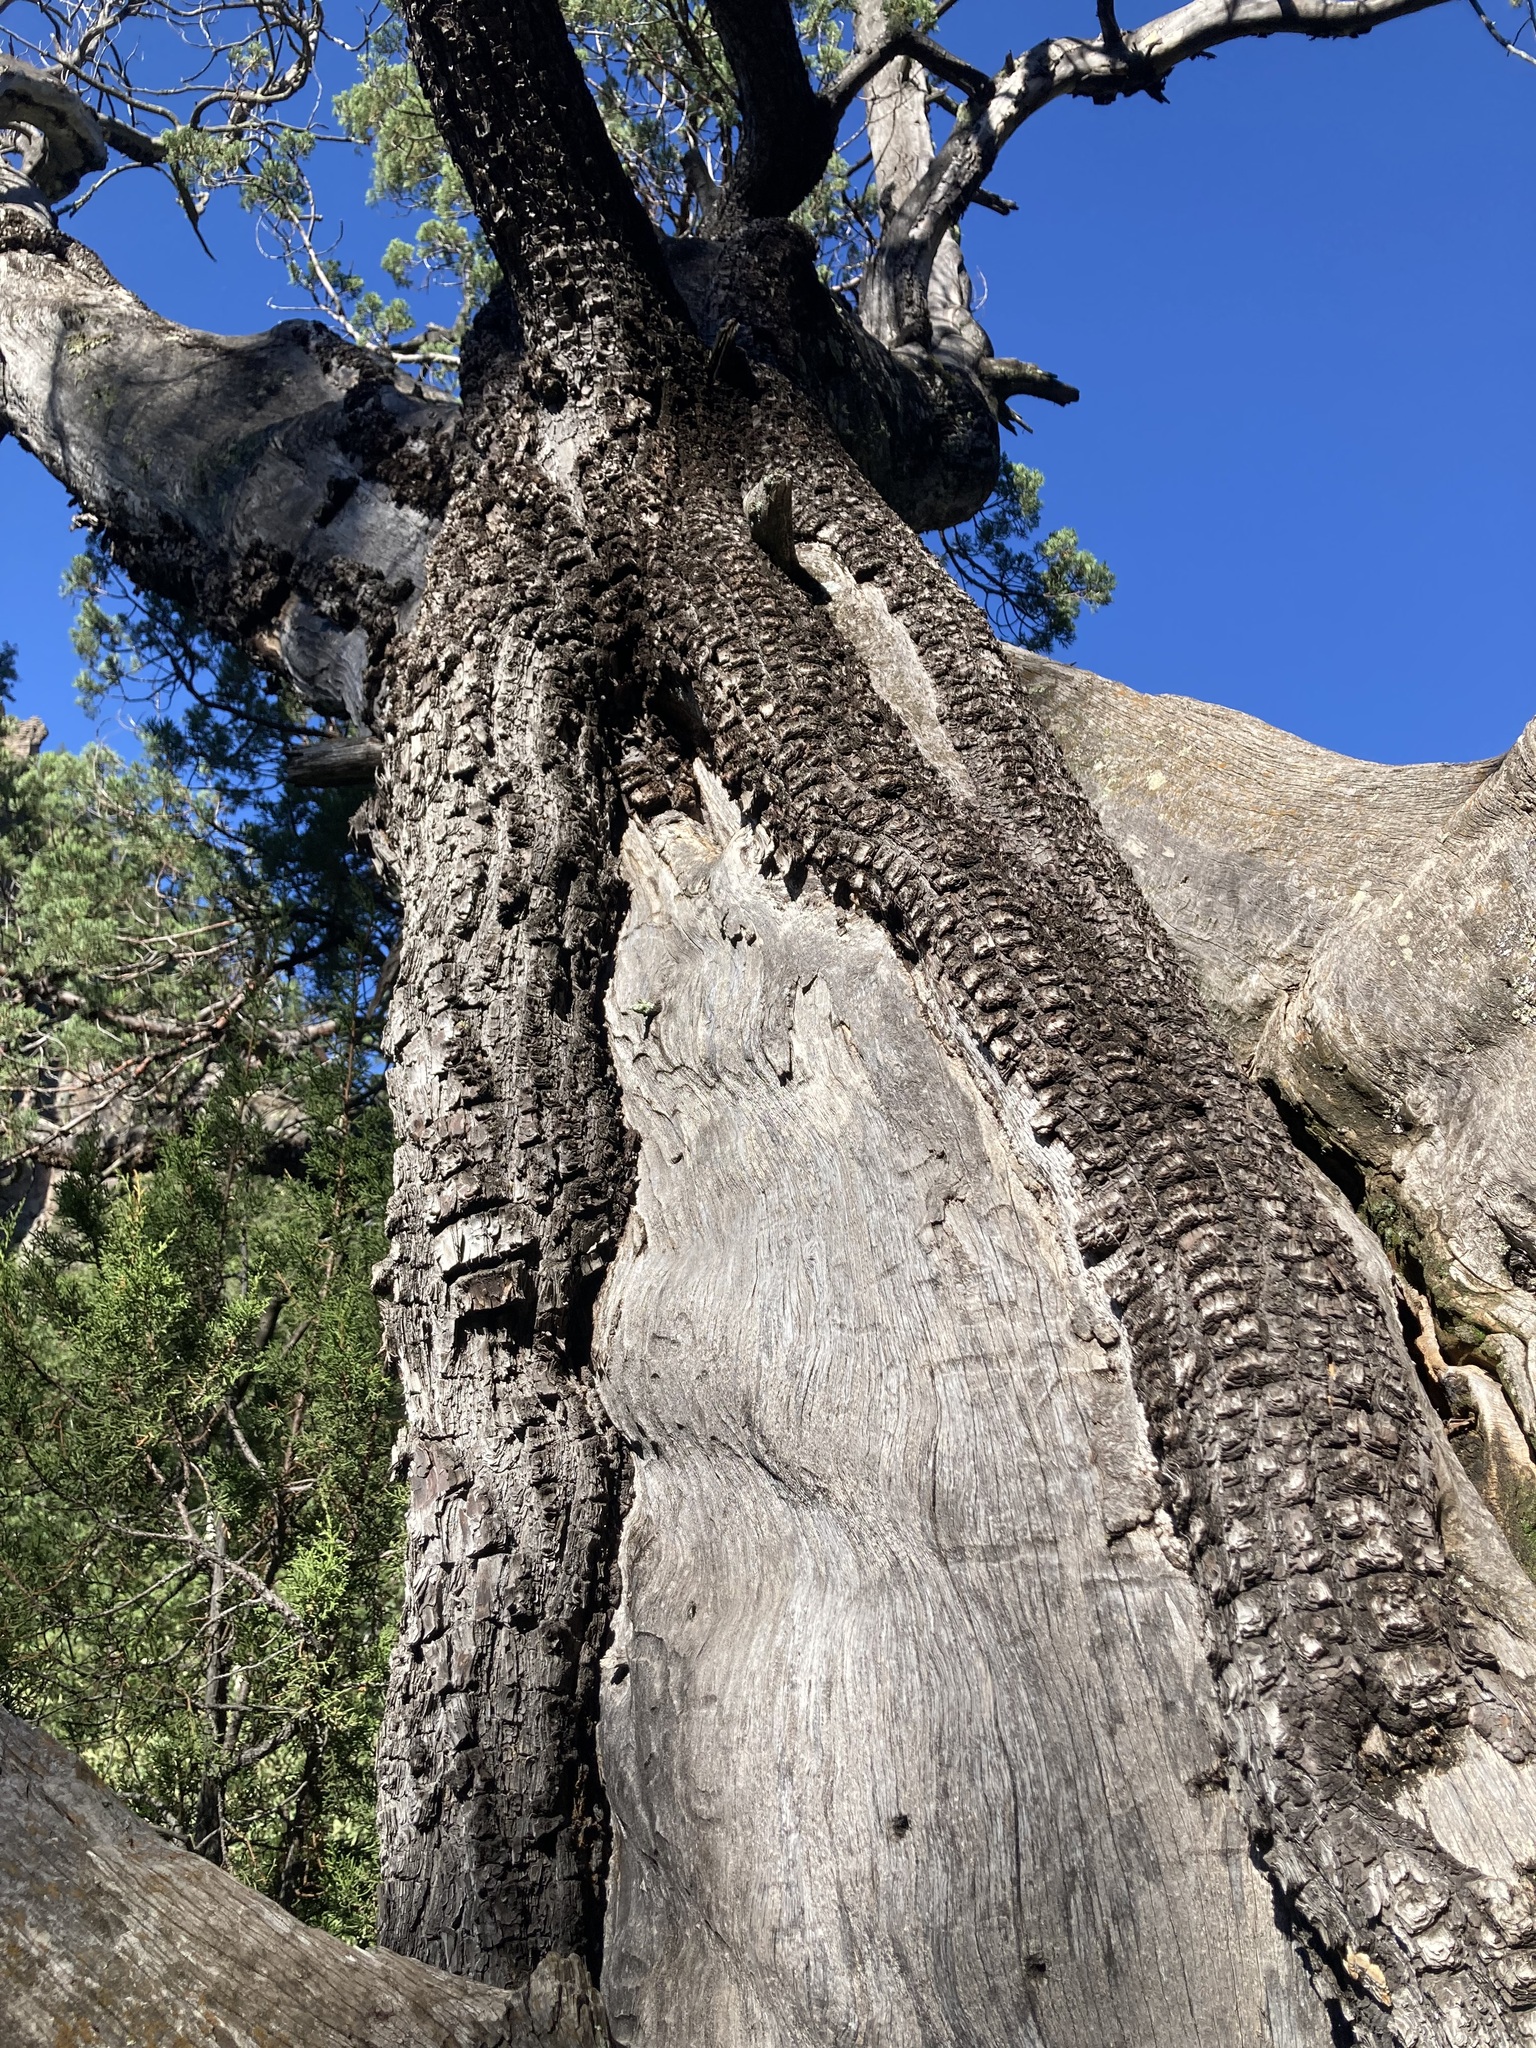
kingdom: Plantae
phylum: Tracheophyta
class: Pinopsida
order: Pinales
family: Cupressaceae
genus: Juniperus
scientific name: Juniperus deppeana
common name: Alligator juniper
